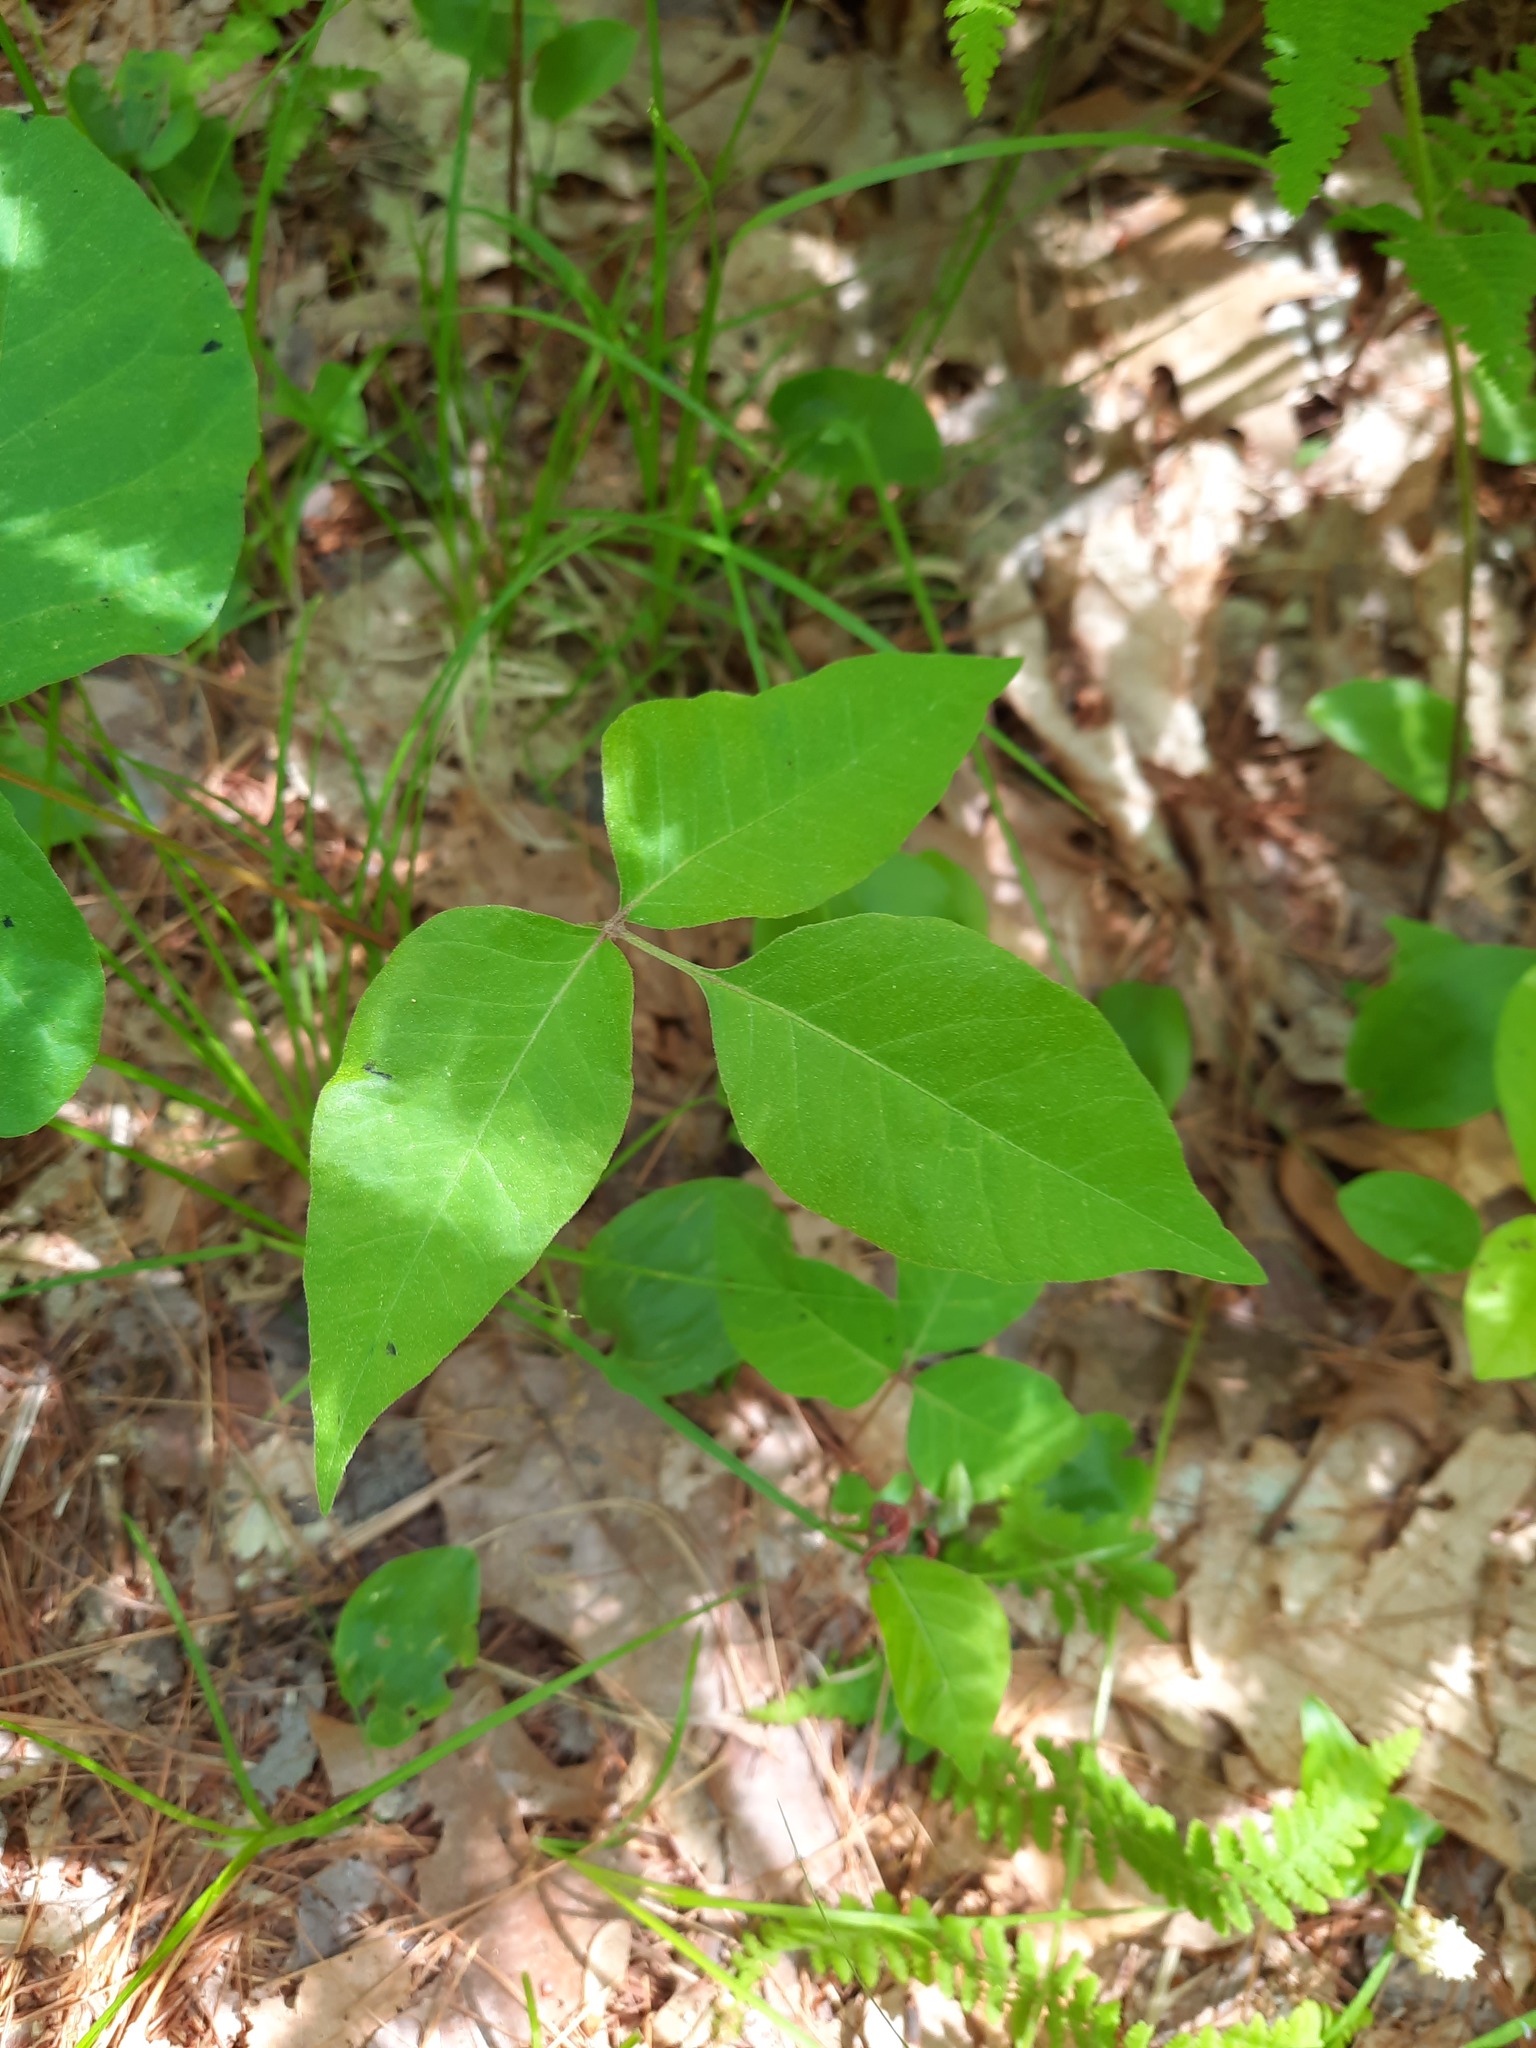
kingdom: Plantae
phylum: Tracheophyta
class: Magnoliopsida
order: Sapindales
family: Anacardiaceae
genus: Toxicodendron
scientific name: Toxicodendron radicans
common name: Poison ivy
